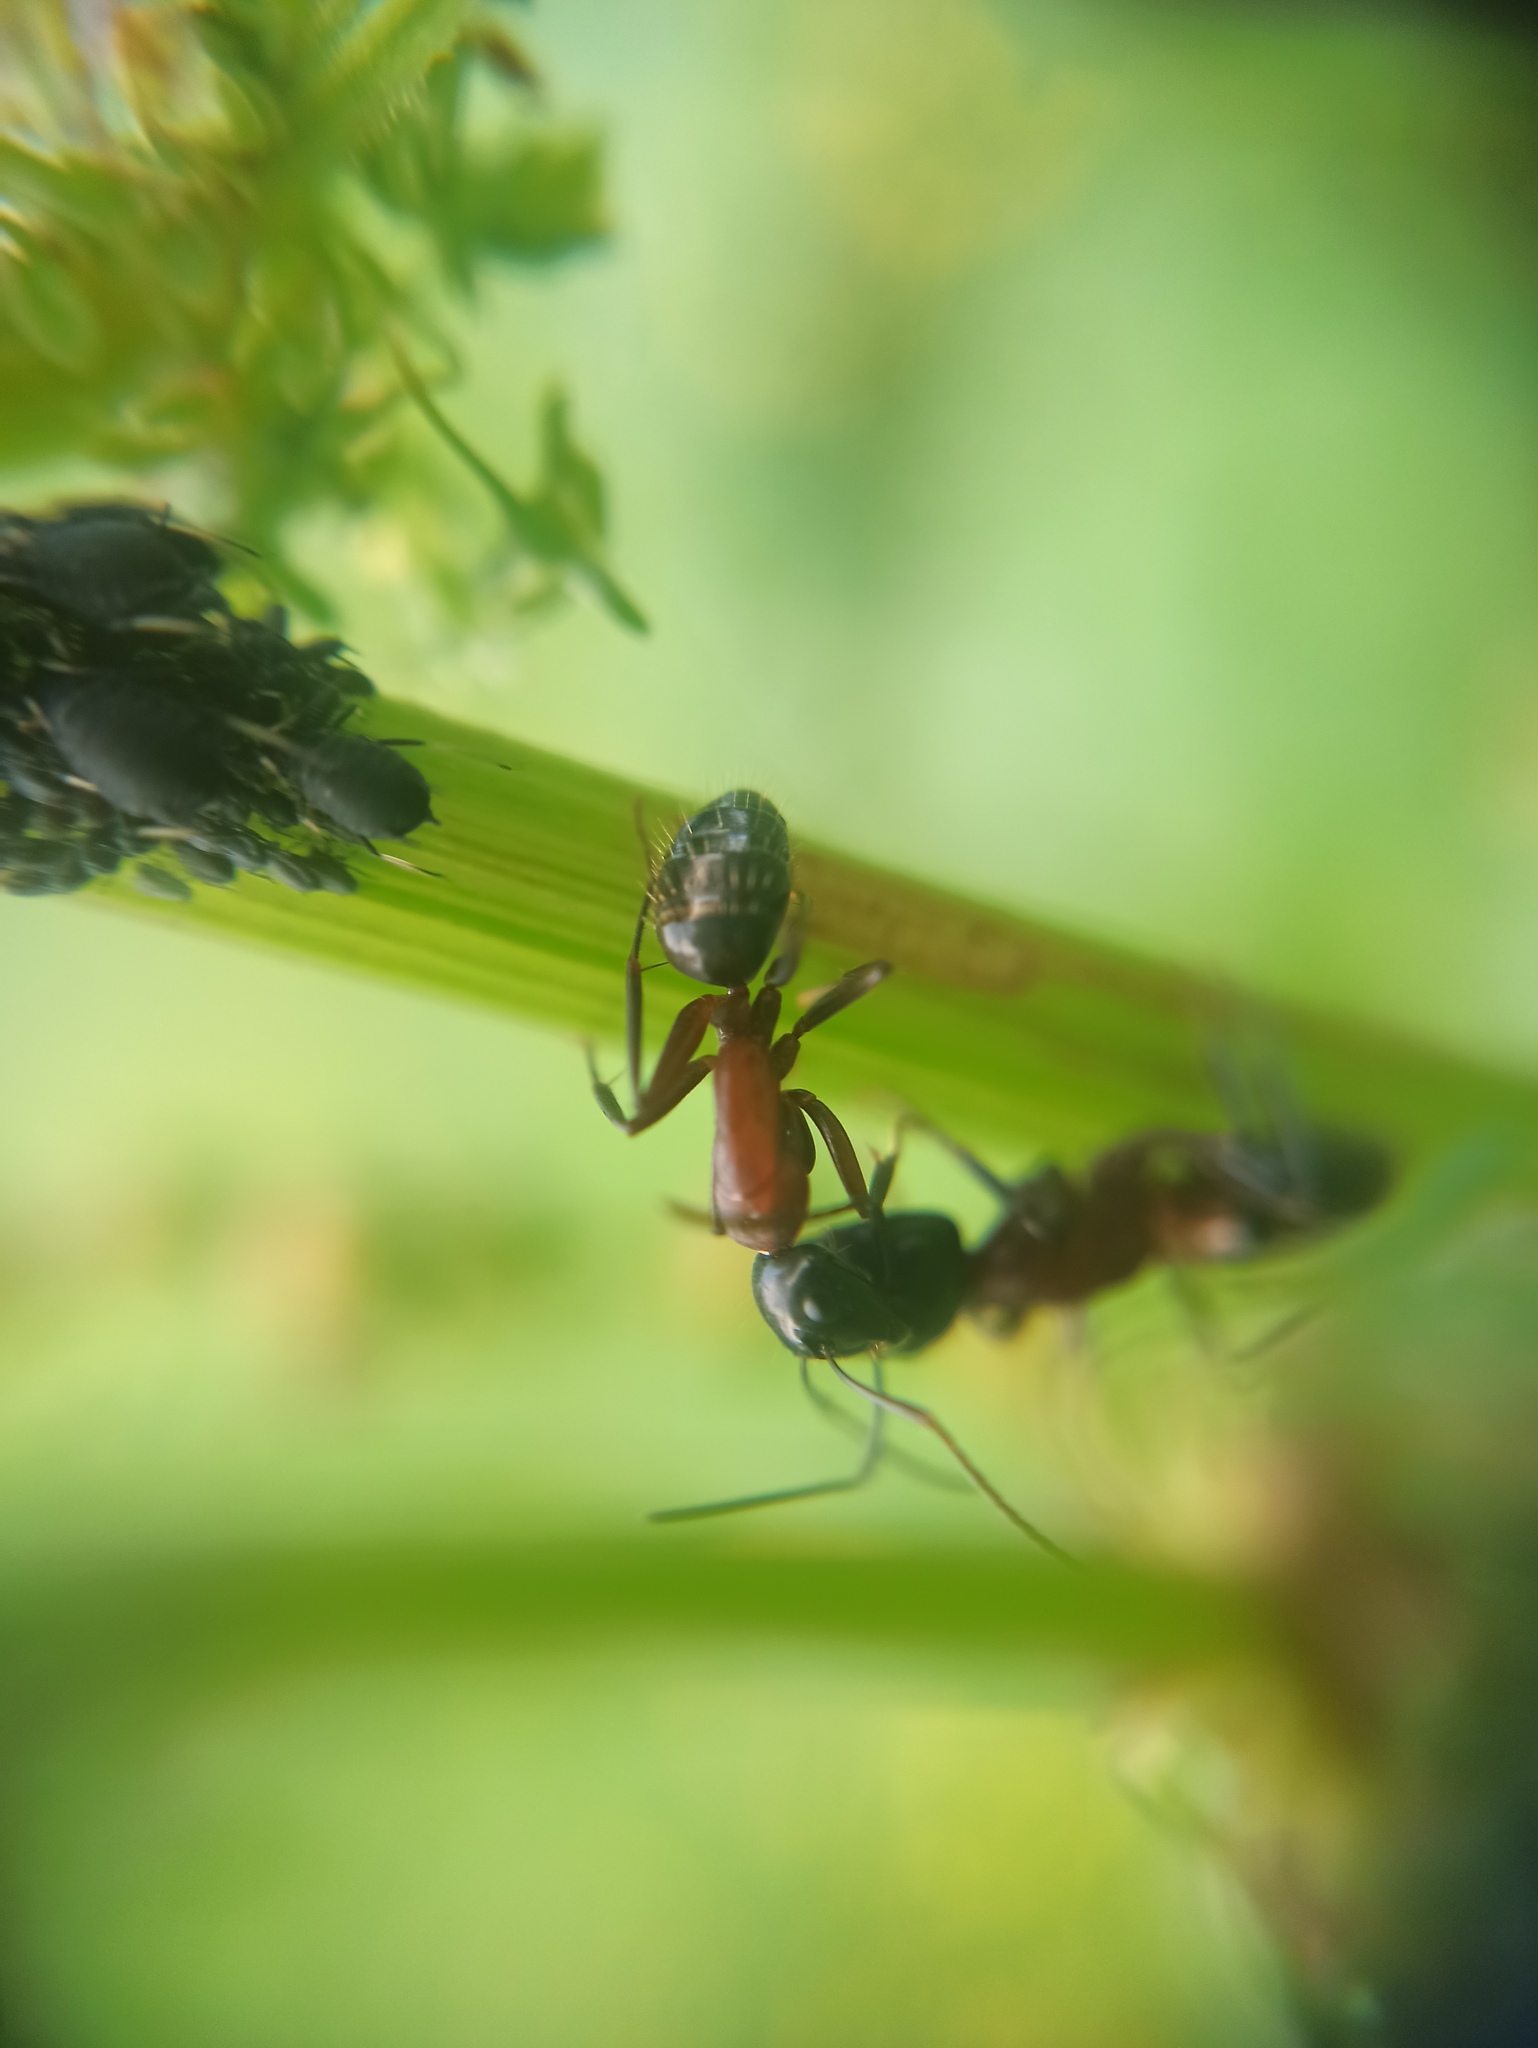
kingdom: Animalia
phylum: Arthropoda
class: Insecta
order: Hymenoptera
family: Formicidae
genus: Camponotus
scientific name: Camponotus ligniperdus
